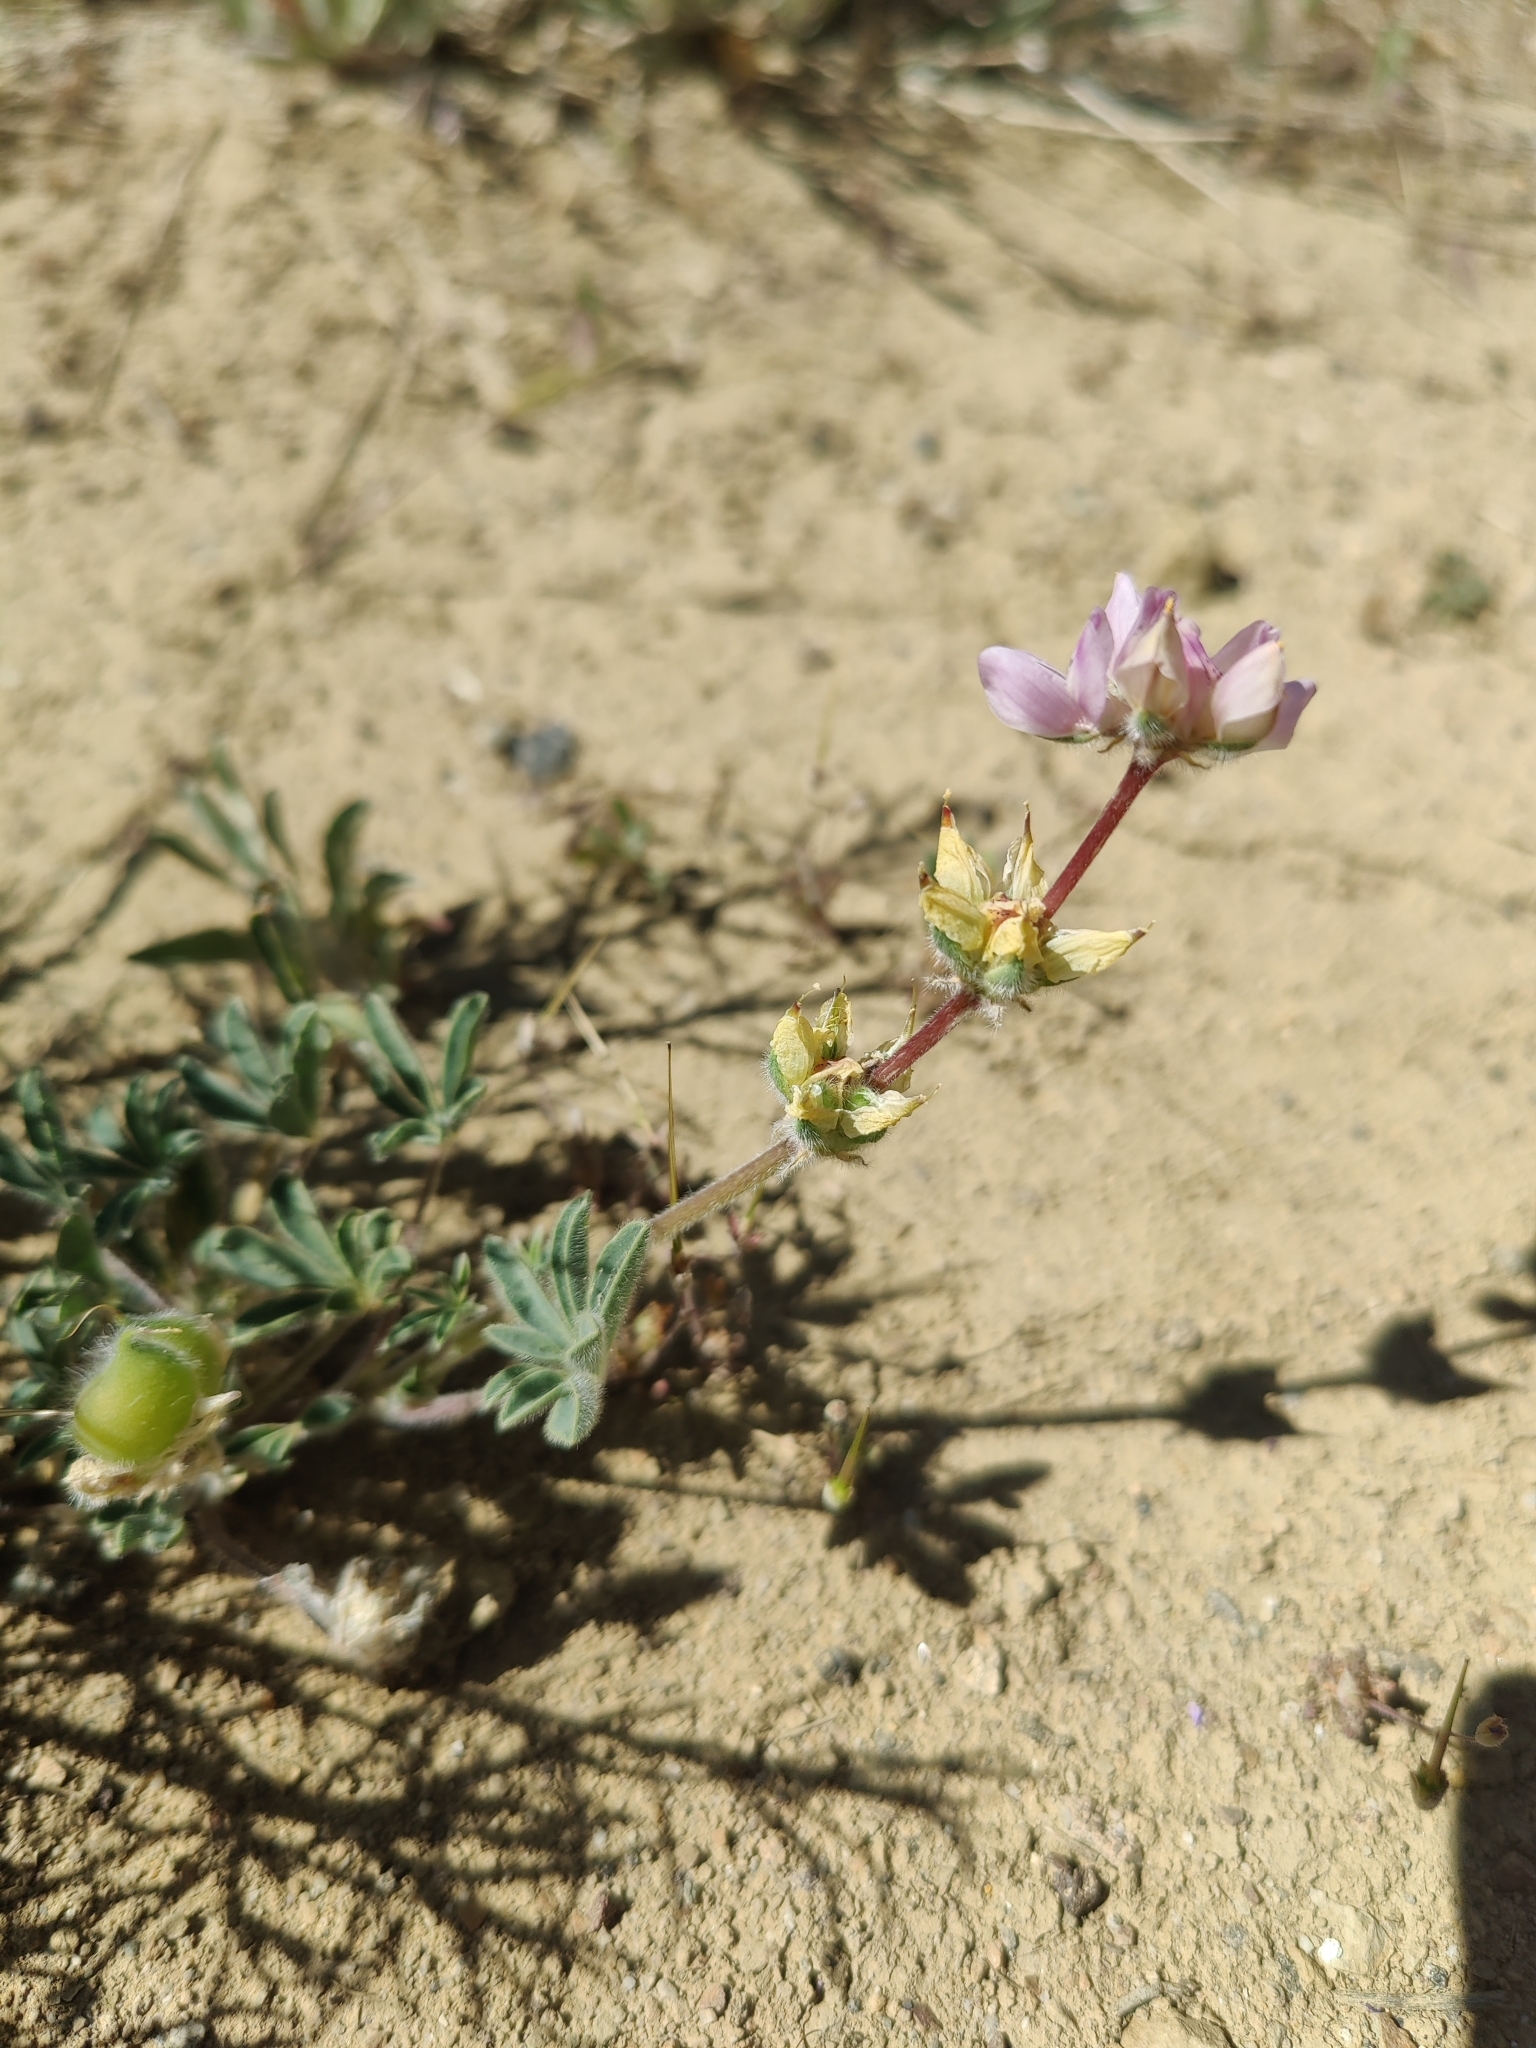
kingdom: Plantae
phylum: Tracheophyta
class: Magnoliopsida
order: Fabales
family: Fabaceae
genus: Lupinus
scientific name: Lupinus microcarpus
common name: Chick lupine
